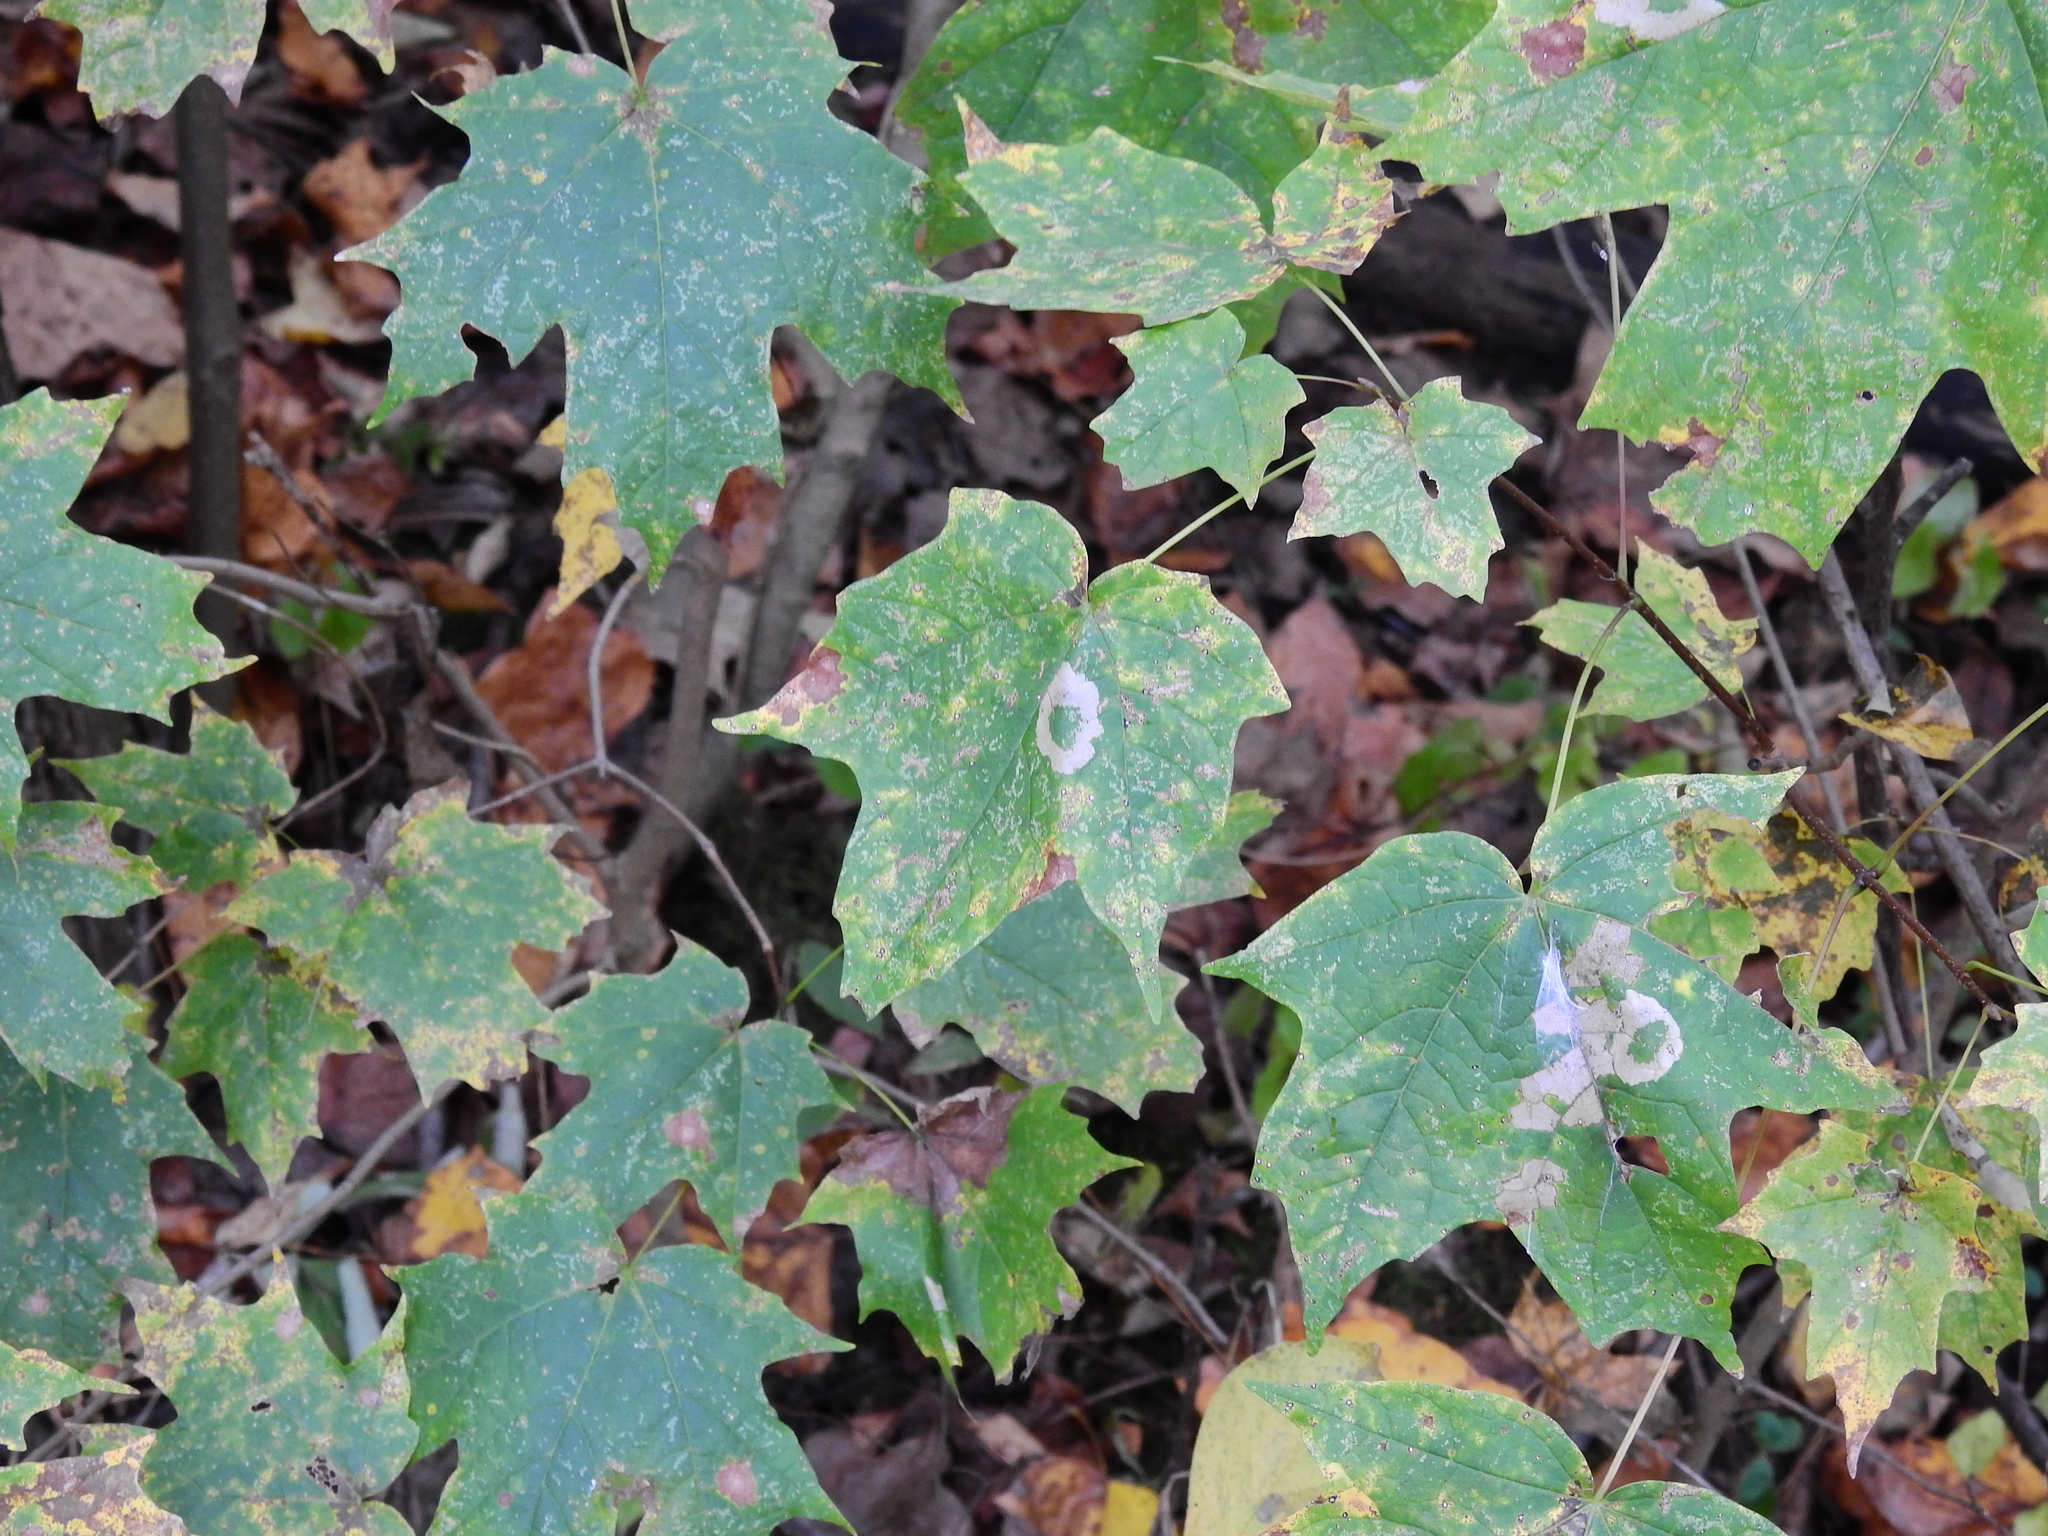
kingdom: Plantae
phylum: Tracheophyta
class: Magnoliopsida
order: Sapindales
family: Sapindaceae
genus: Acer
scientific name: Acer saccharum
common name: Sugar maple
